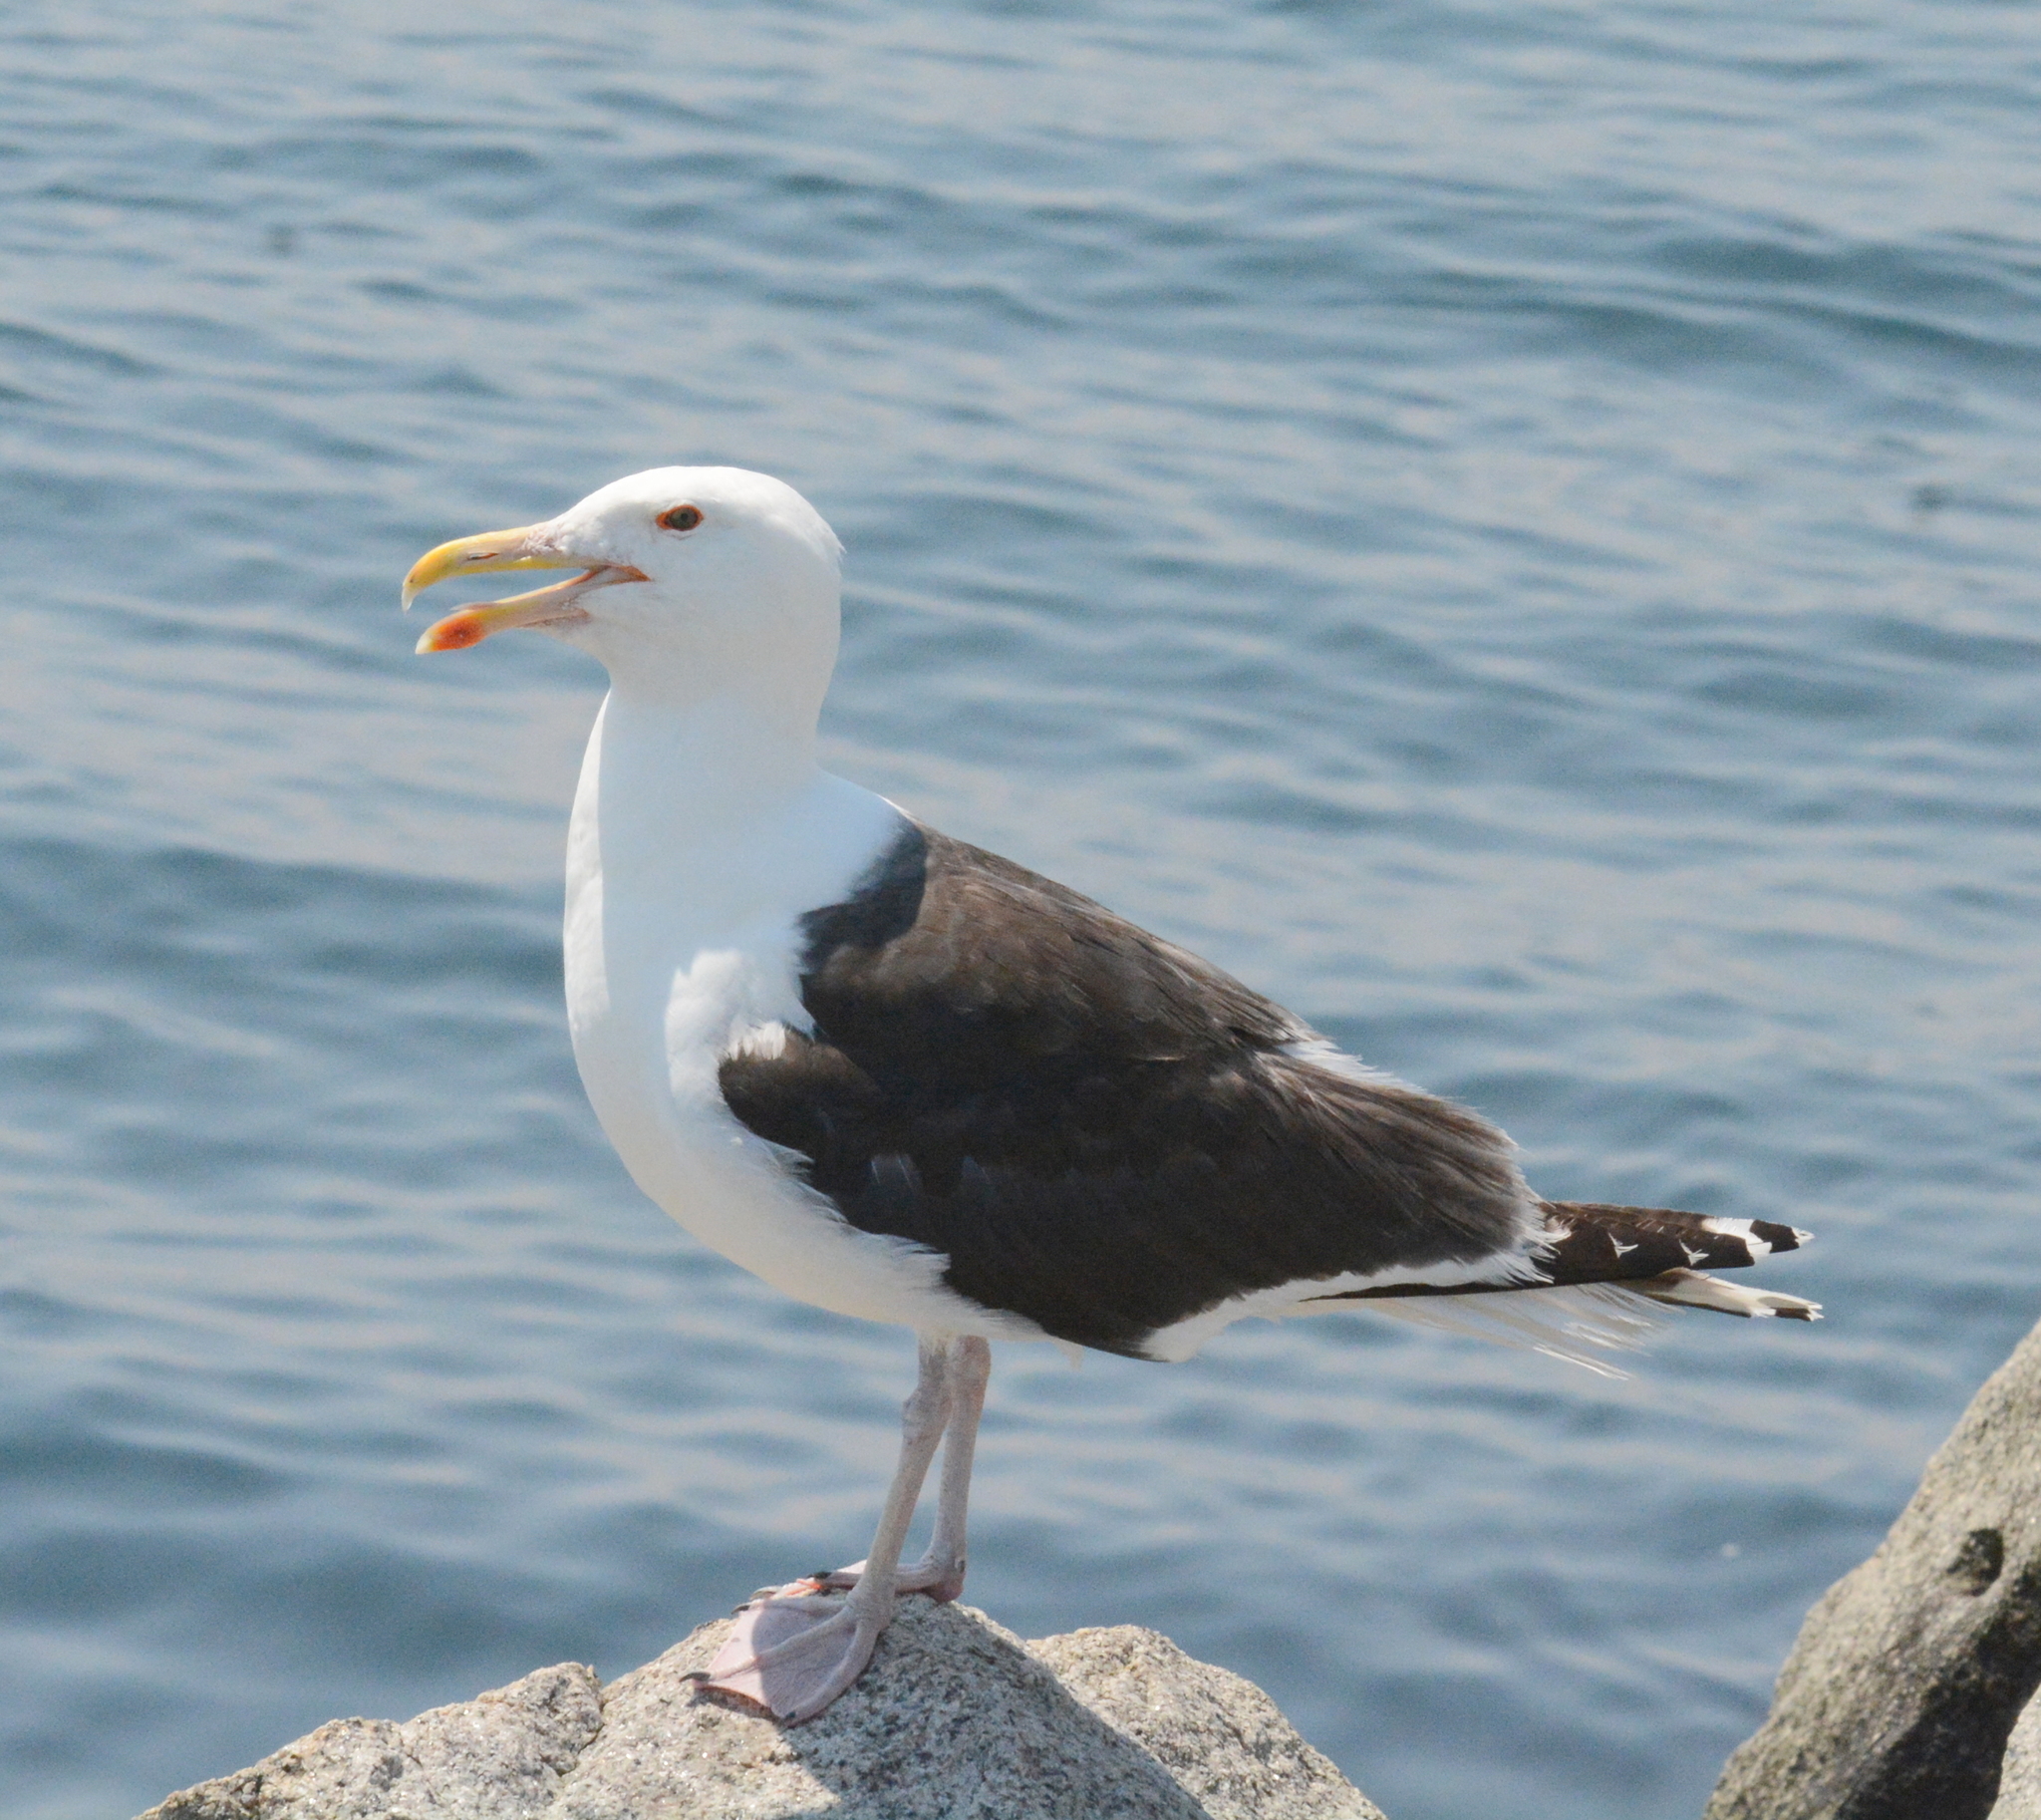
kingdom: Animalia
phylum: Chordata
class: Aves
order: Charadriiformes
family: Laridae
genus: Larus
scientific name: Larus marinus
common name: Great black-backed gull
